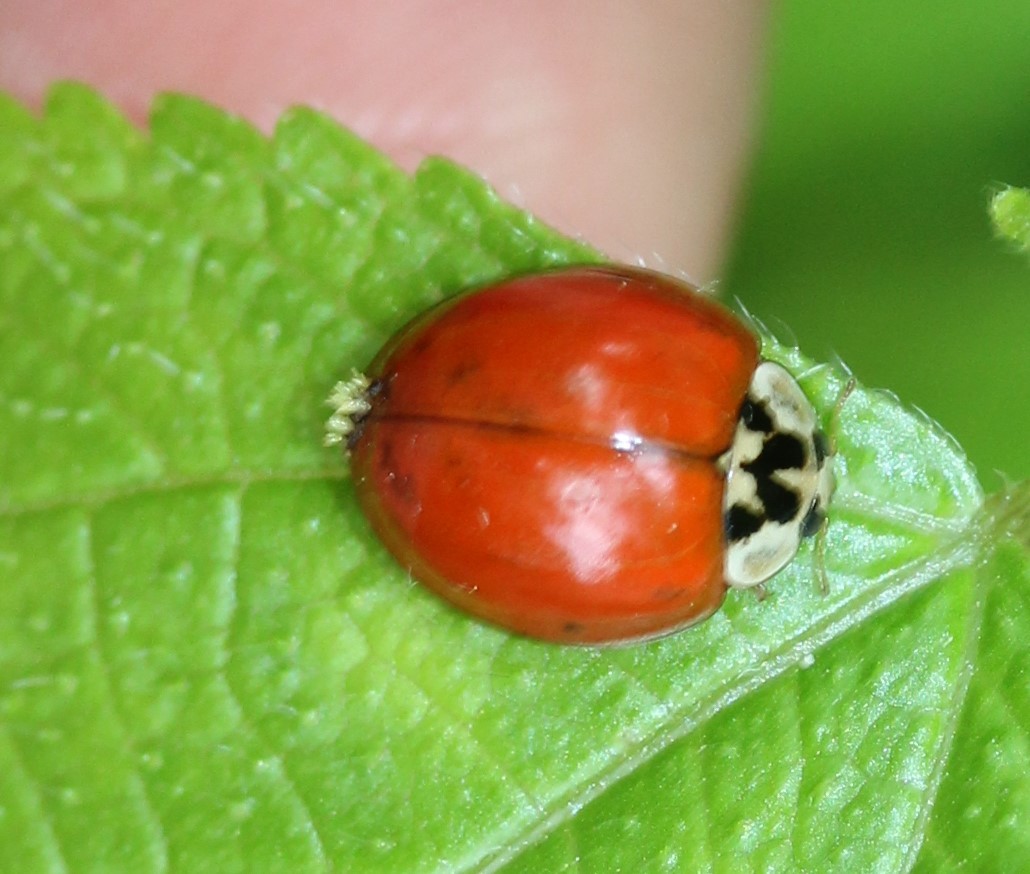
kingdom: Fungi
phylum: Ascomycota
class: Laboulbeniomycetes
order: Laboulbeniales
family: Laboulbeniaceae
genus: Hesperomyces
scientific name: Hesperomyces harmoniae
